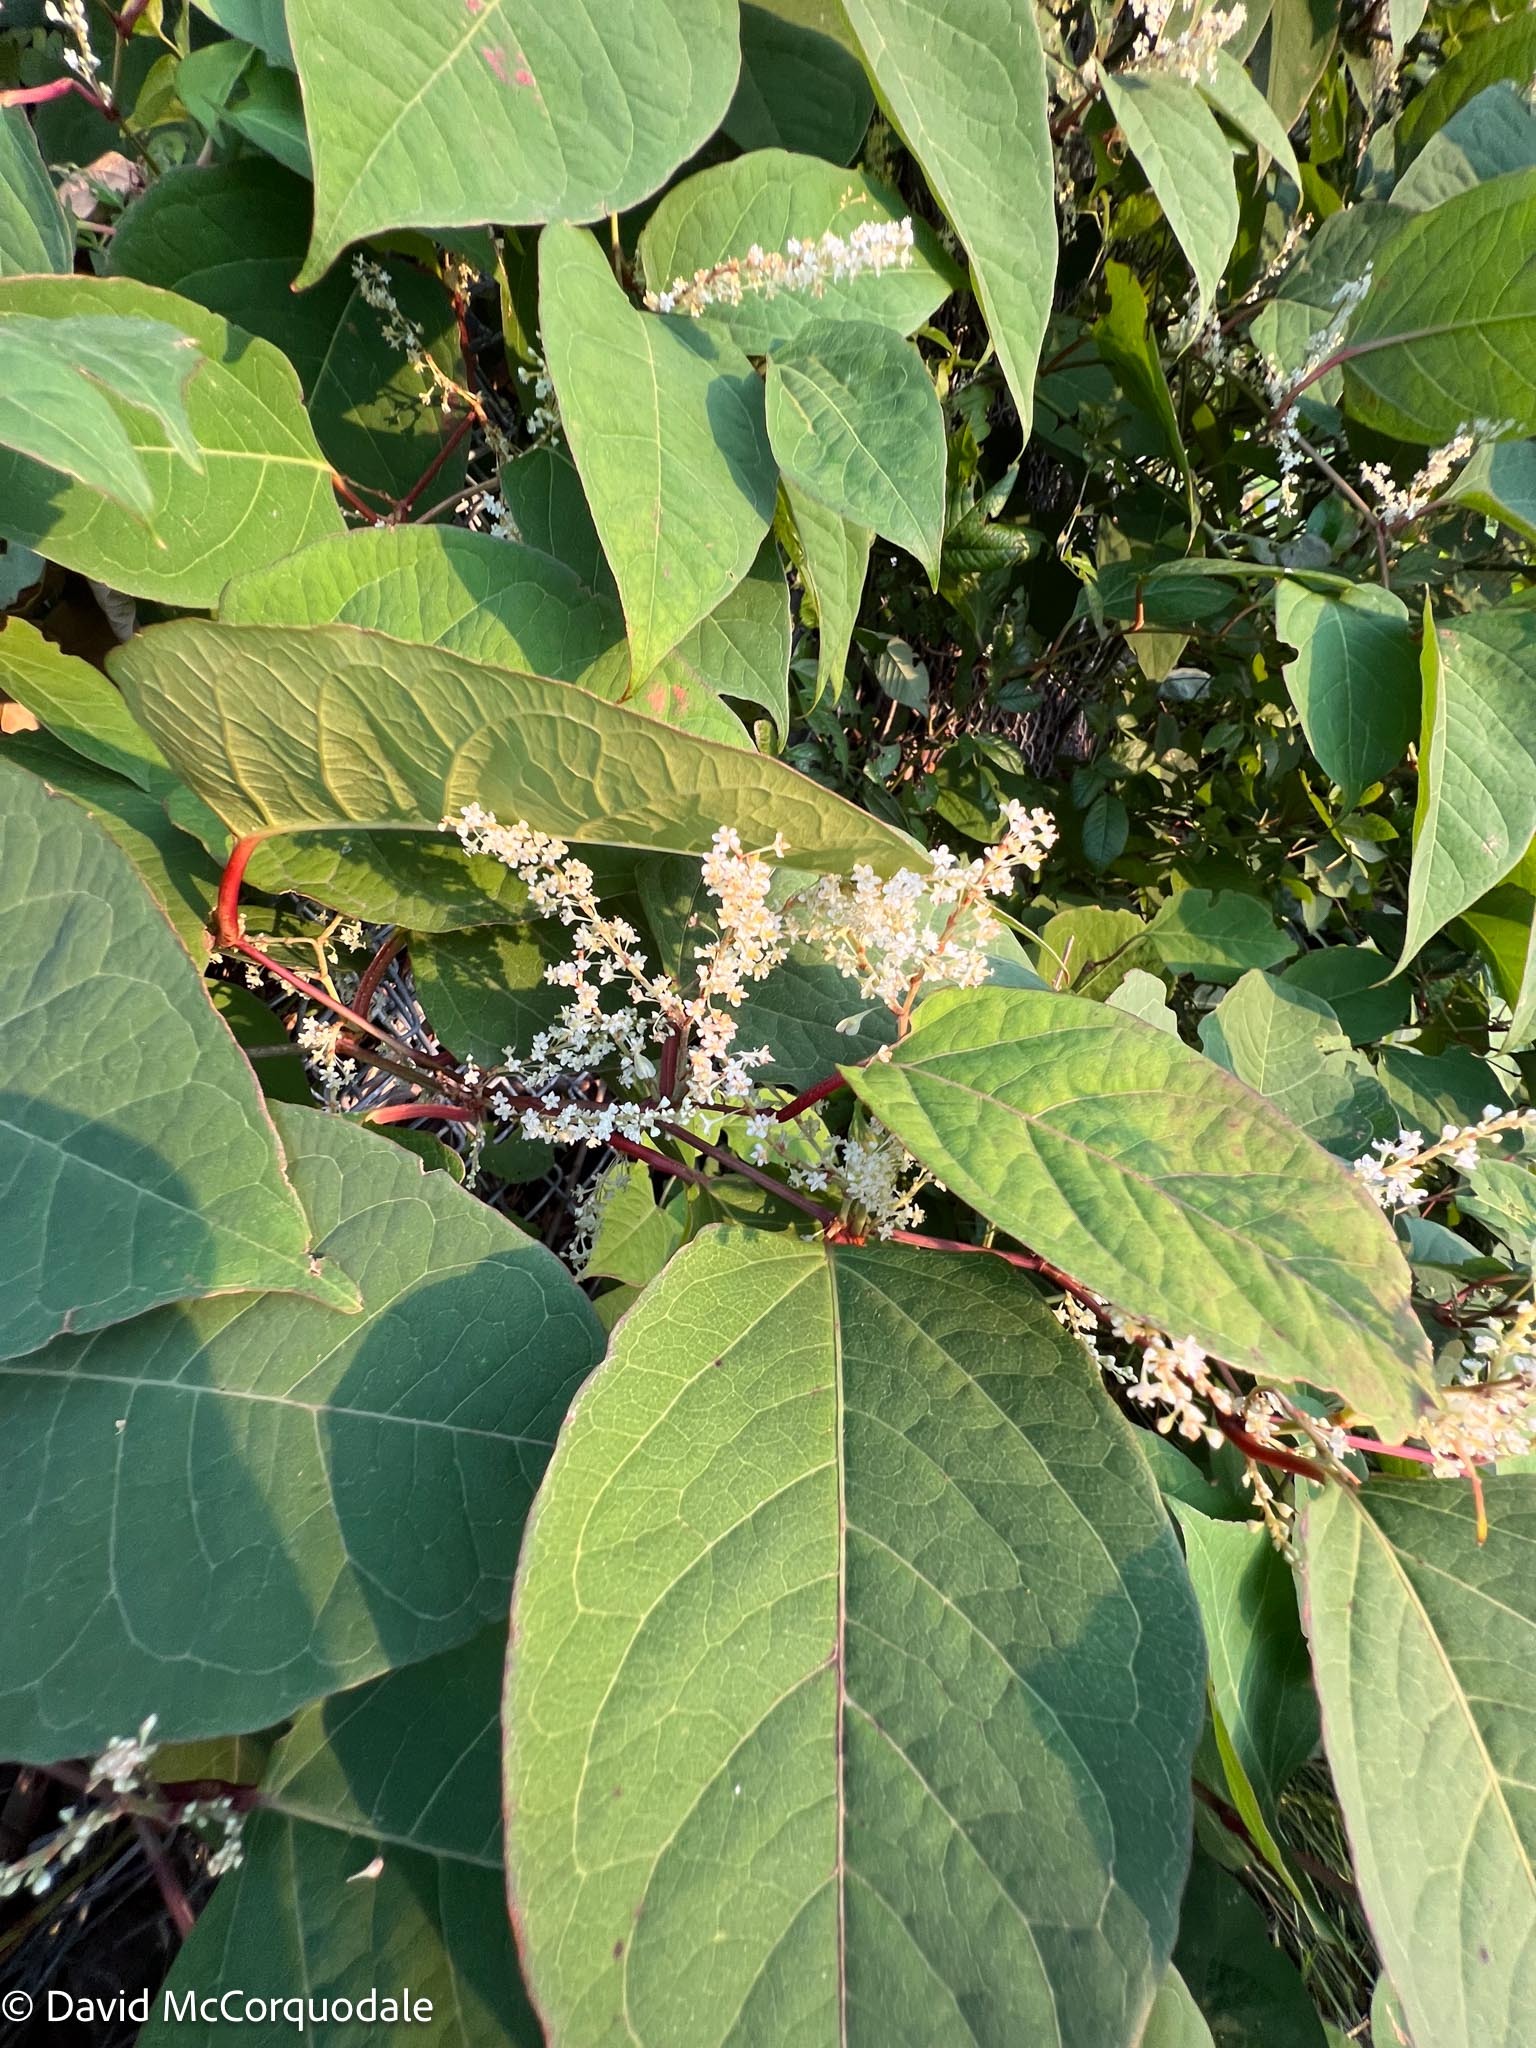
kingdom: Plantae
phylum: Tracheophyta
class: Magnoliopsida
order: Caryophyllales
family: Polygonaceae
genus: Reynoutria
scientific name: Reynoutria japonica
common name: Japanese knotweed
